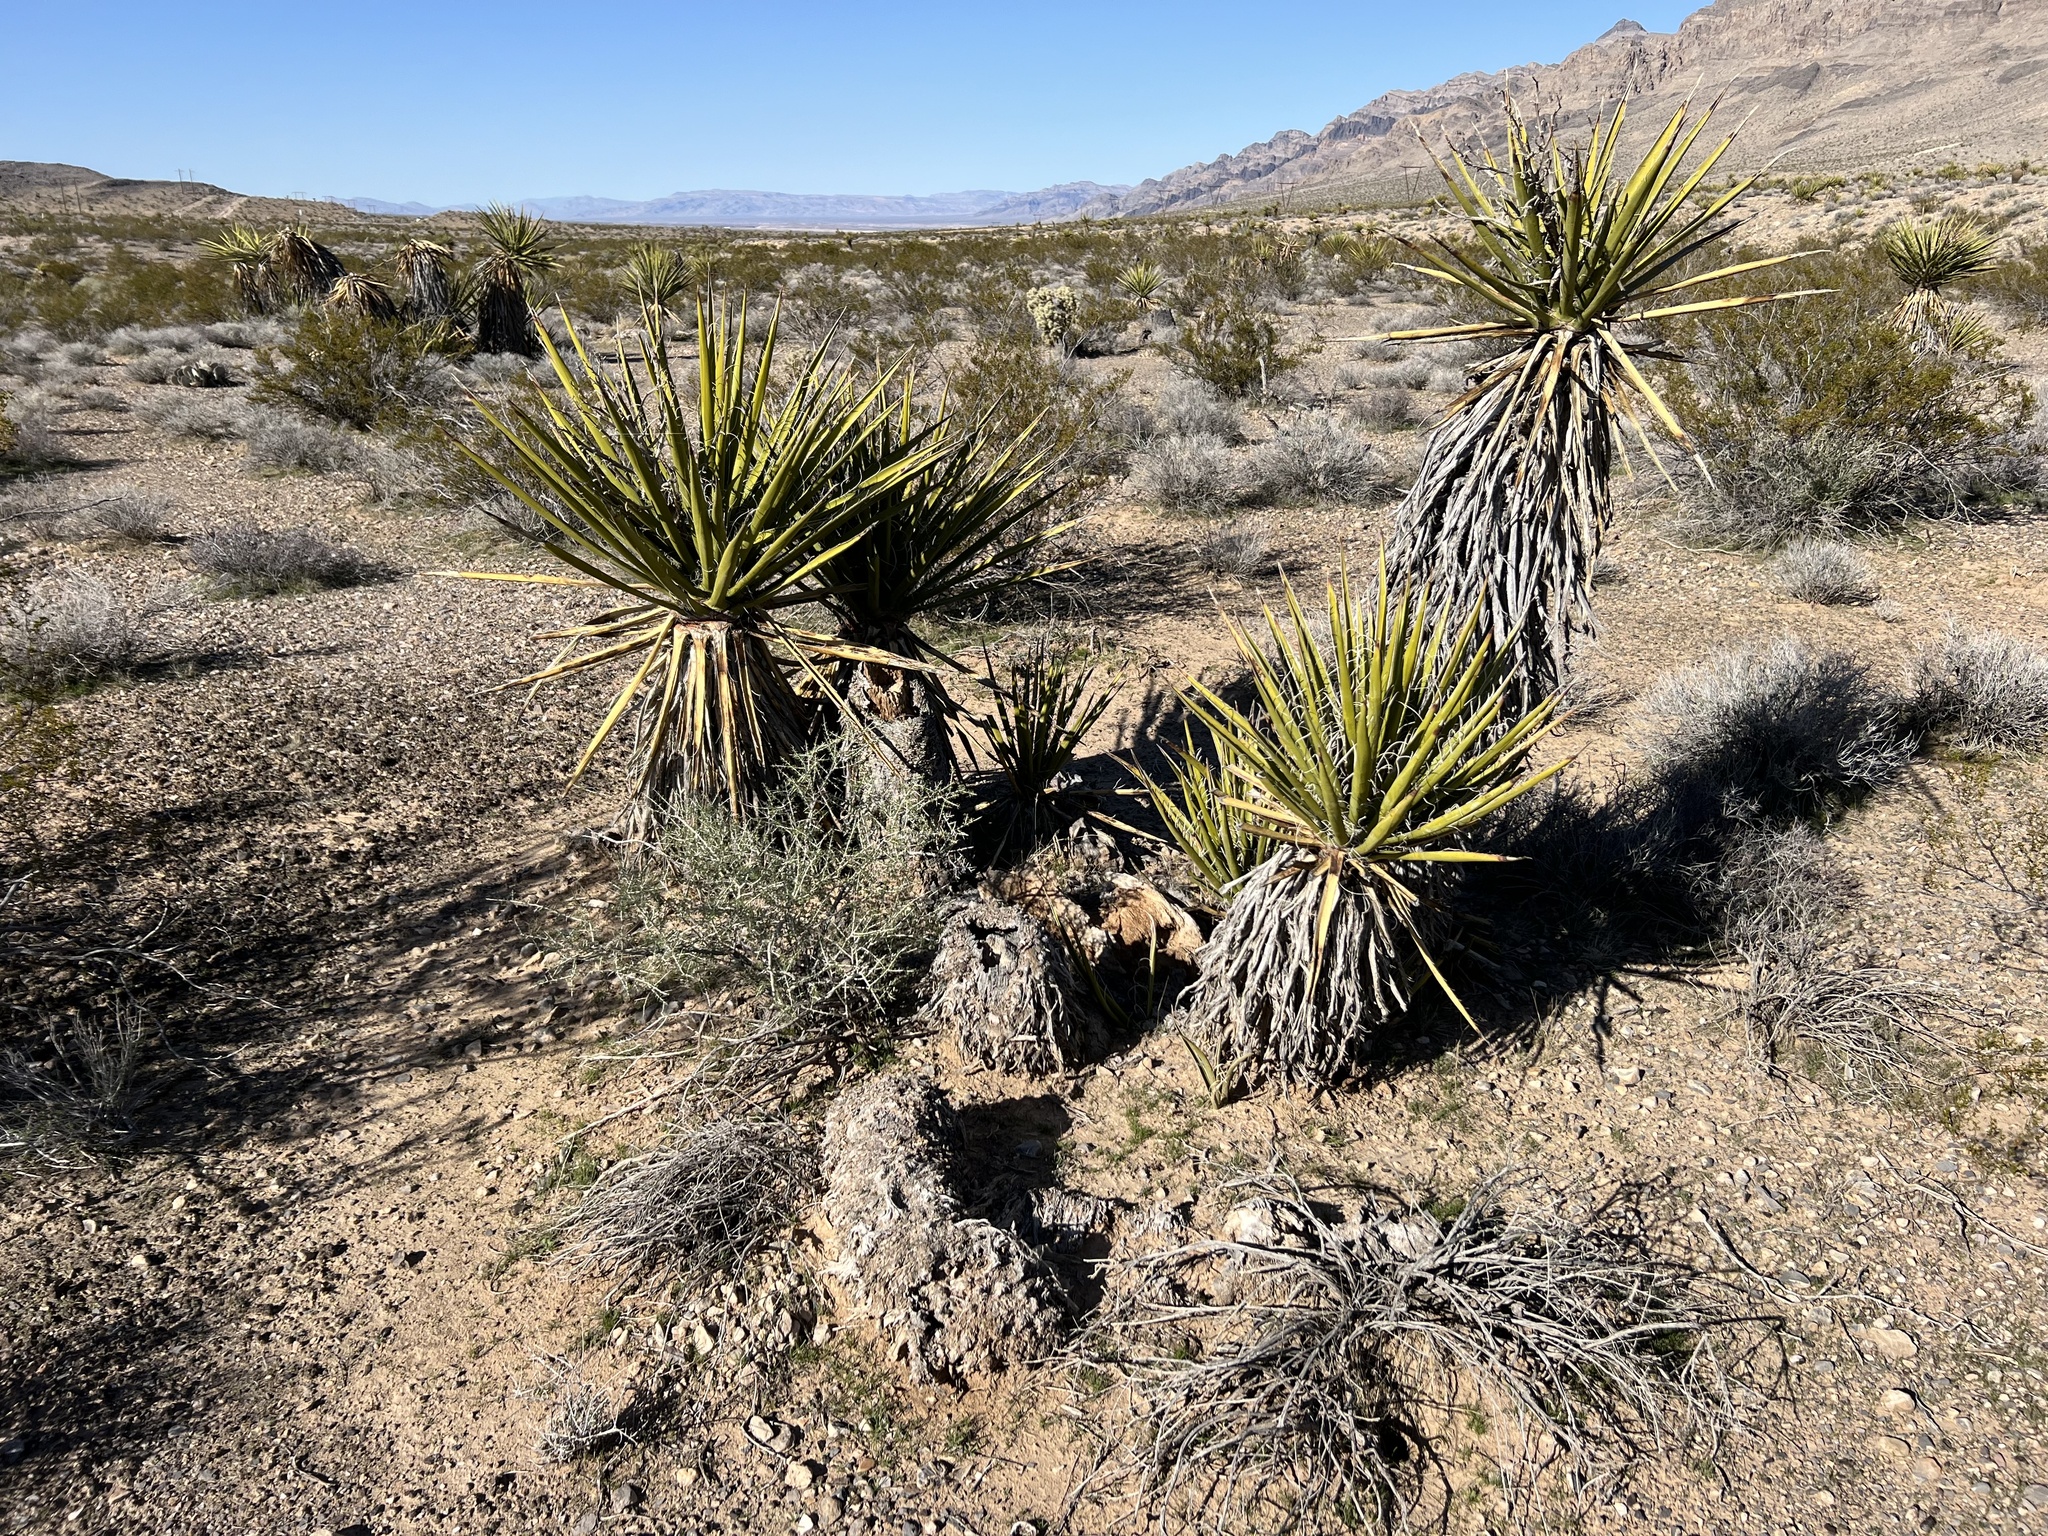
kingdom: Plantae
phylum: Tracheophyta
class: Liliopsida
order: Asparagales
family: Asparagaceae
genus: Yucca
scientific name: Yucca schidigera
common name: Mojave yucca
